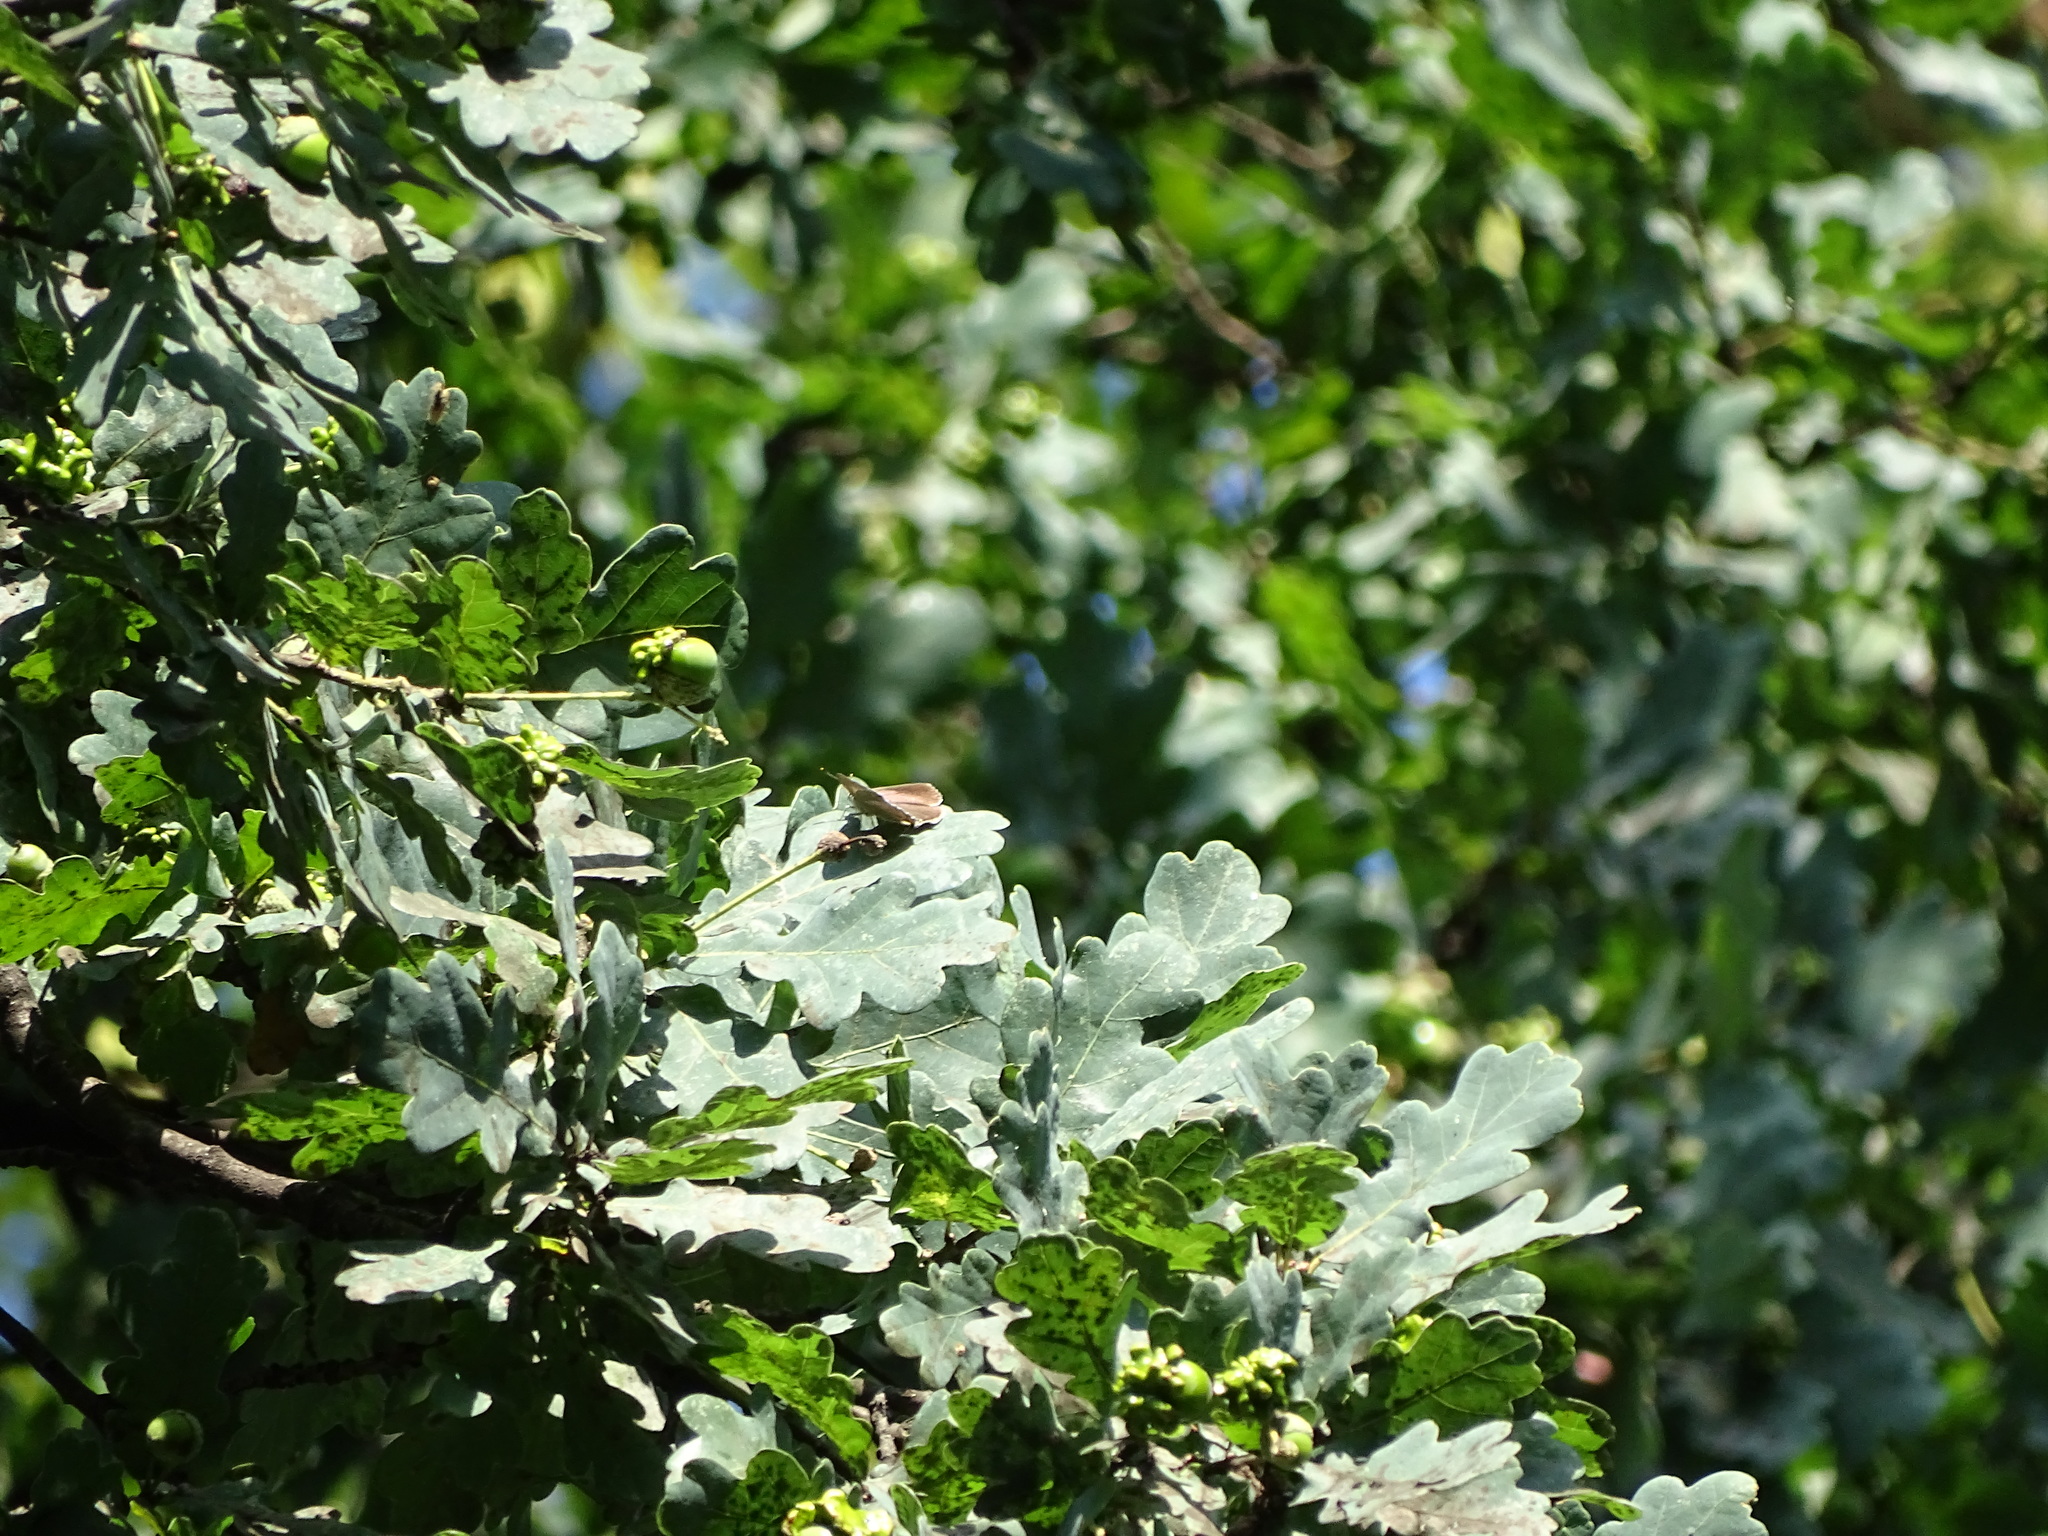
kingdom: Animalia
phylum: Arthropoda
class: Insecta
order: Lepidoptera
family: Lycaenidae
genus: Quercusia
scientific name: Quercusia quercus
